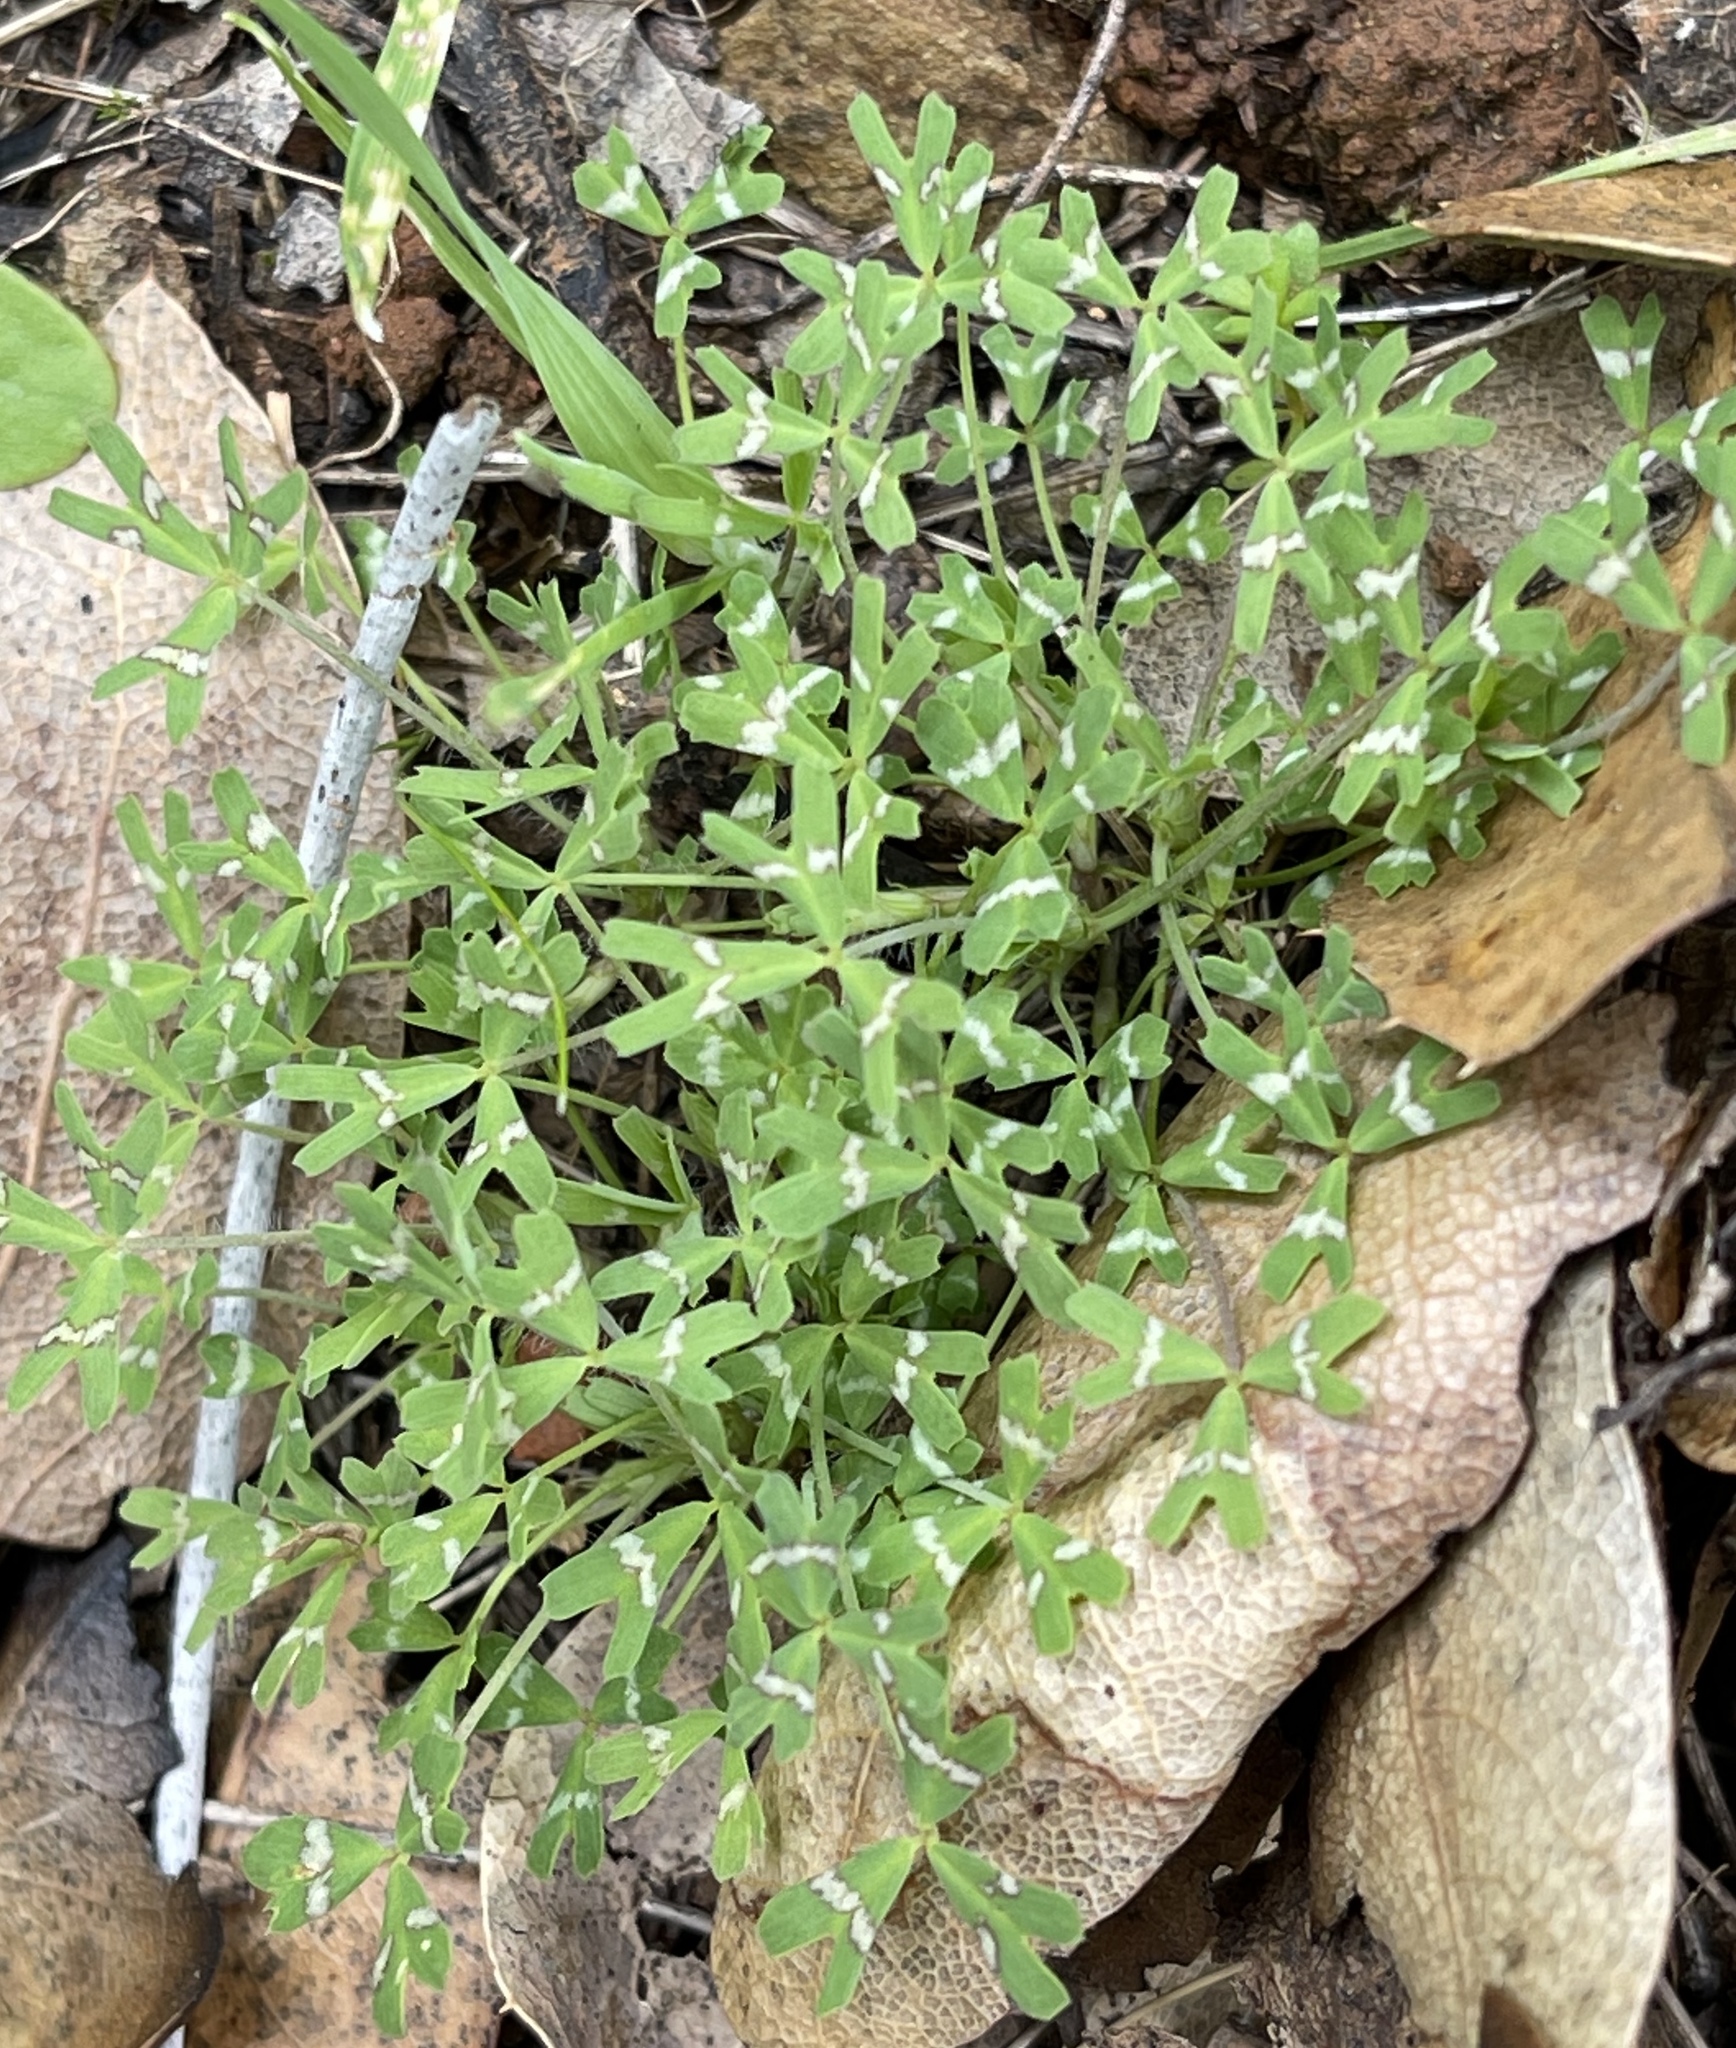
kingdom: Plantae
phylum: Tracheophyta
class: Magnoliopsida
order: Fabales
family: Fabaceae
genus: Trifolium
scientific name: Trifolium bifidum
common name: Notch-leaf clover
